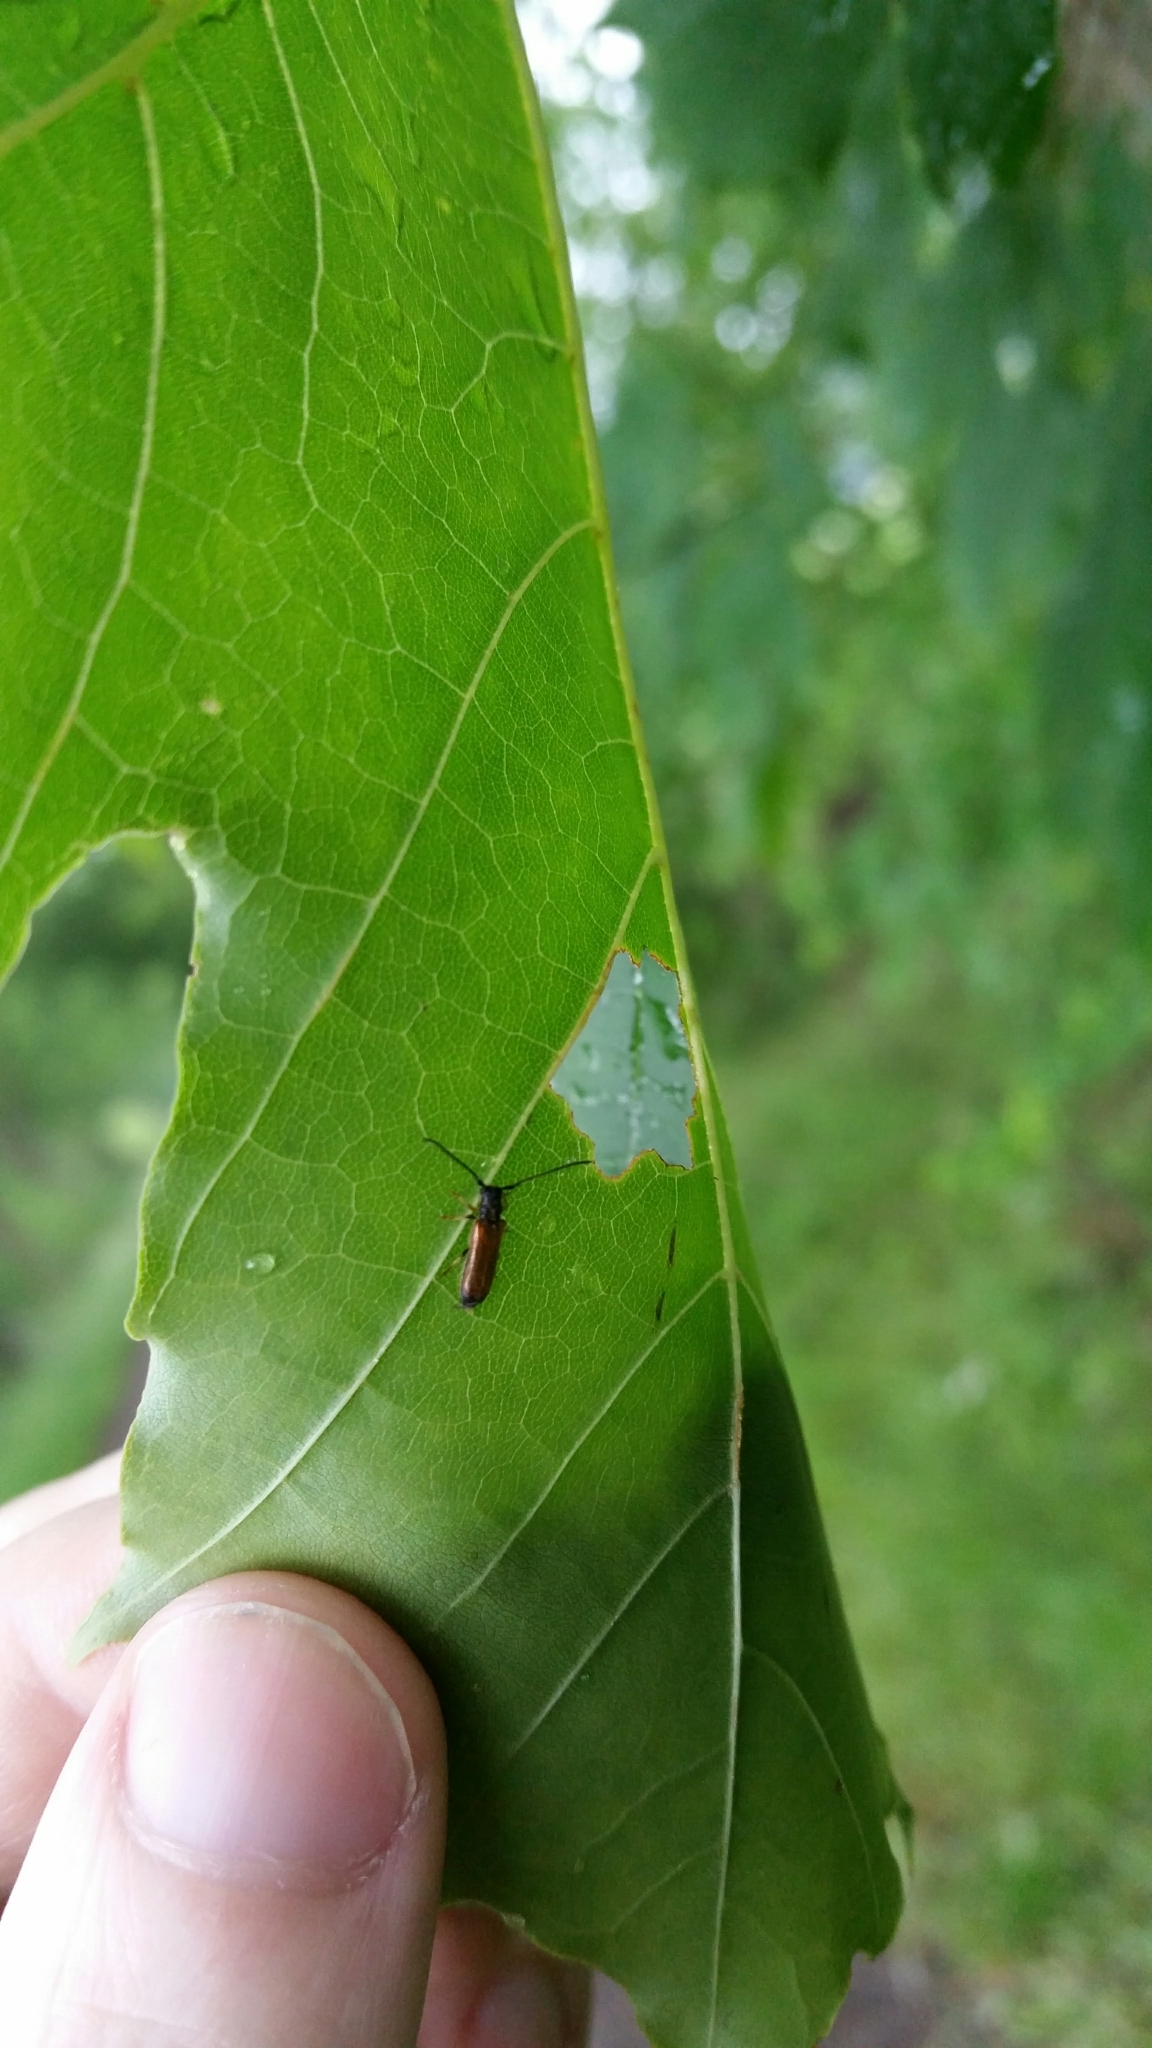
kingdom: Animalia
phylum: Arthropoda
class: Insecta
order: Coleoptera
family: Cerambycidae
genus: Tetrops
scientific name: Tetrops praeustus
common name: Plum beetle
